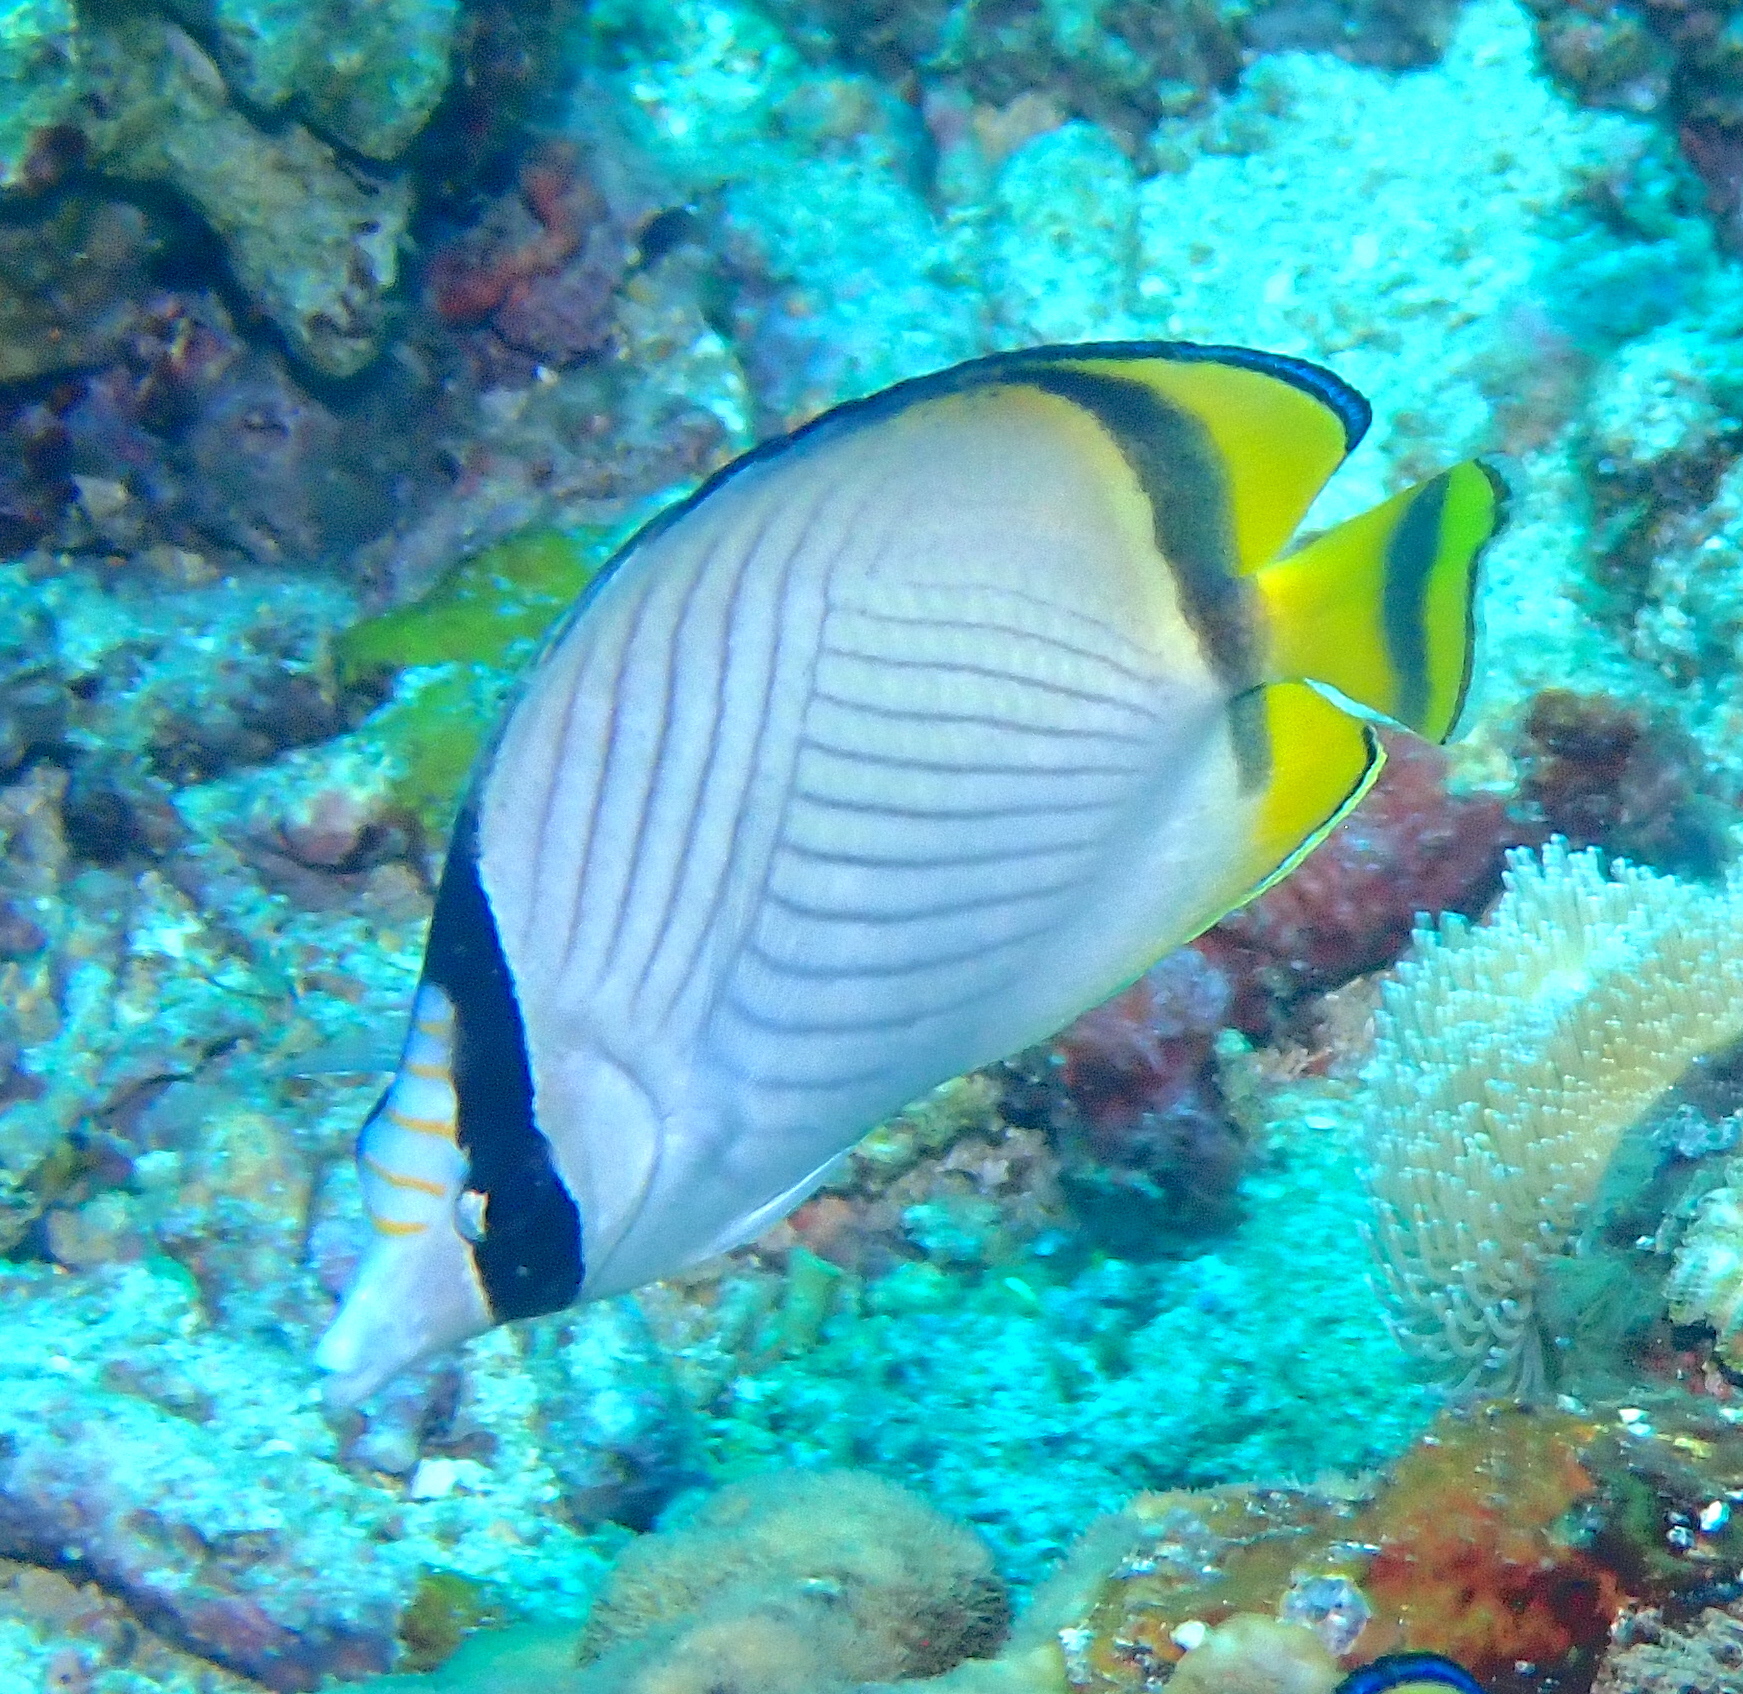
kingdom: Animalia
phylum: Chordata
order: Perciformes
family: Chaetodontidae
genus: Chaetodon
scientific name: Chaetodon vagabundus
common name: Vagabond butterflyfish
